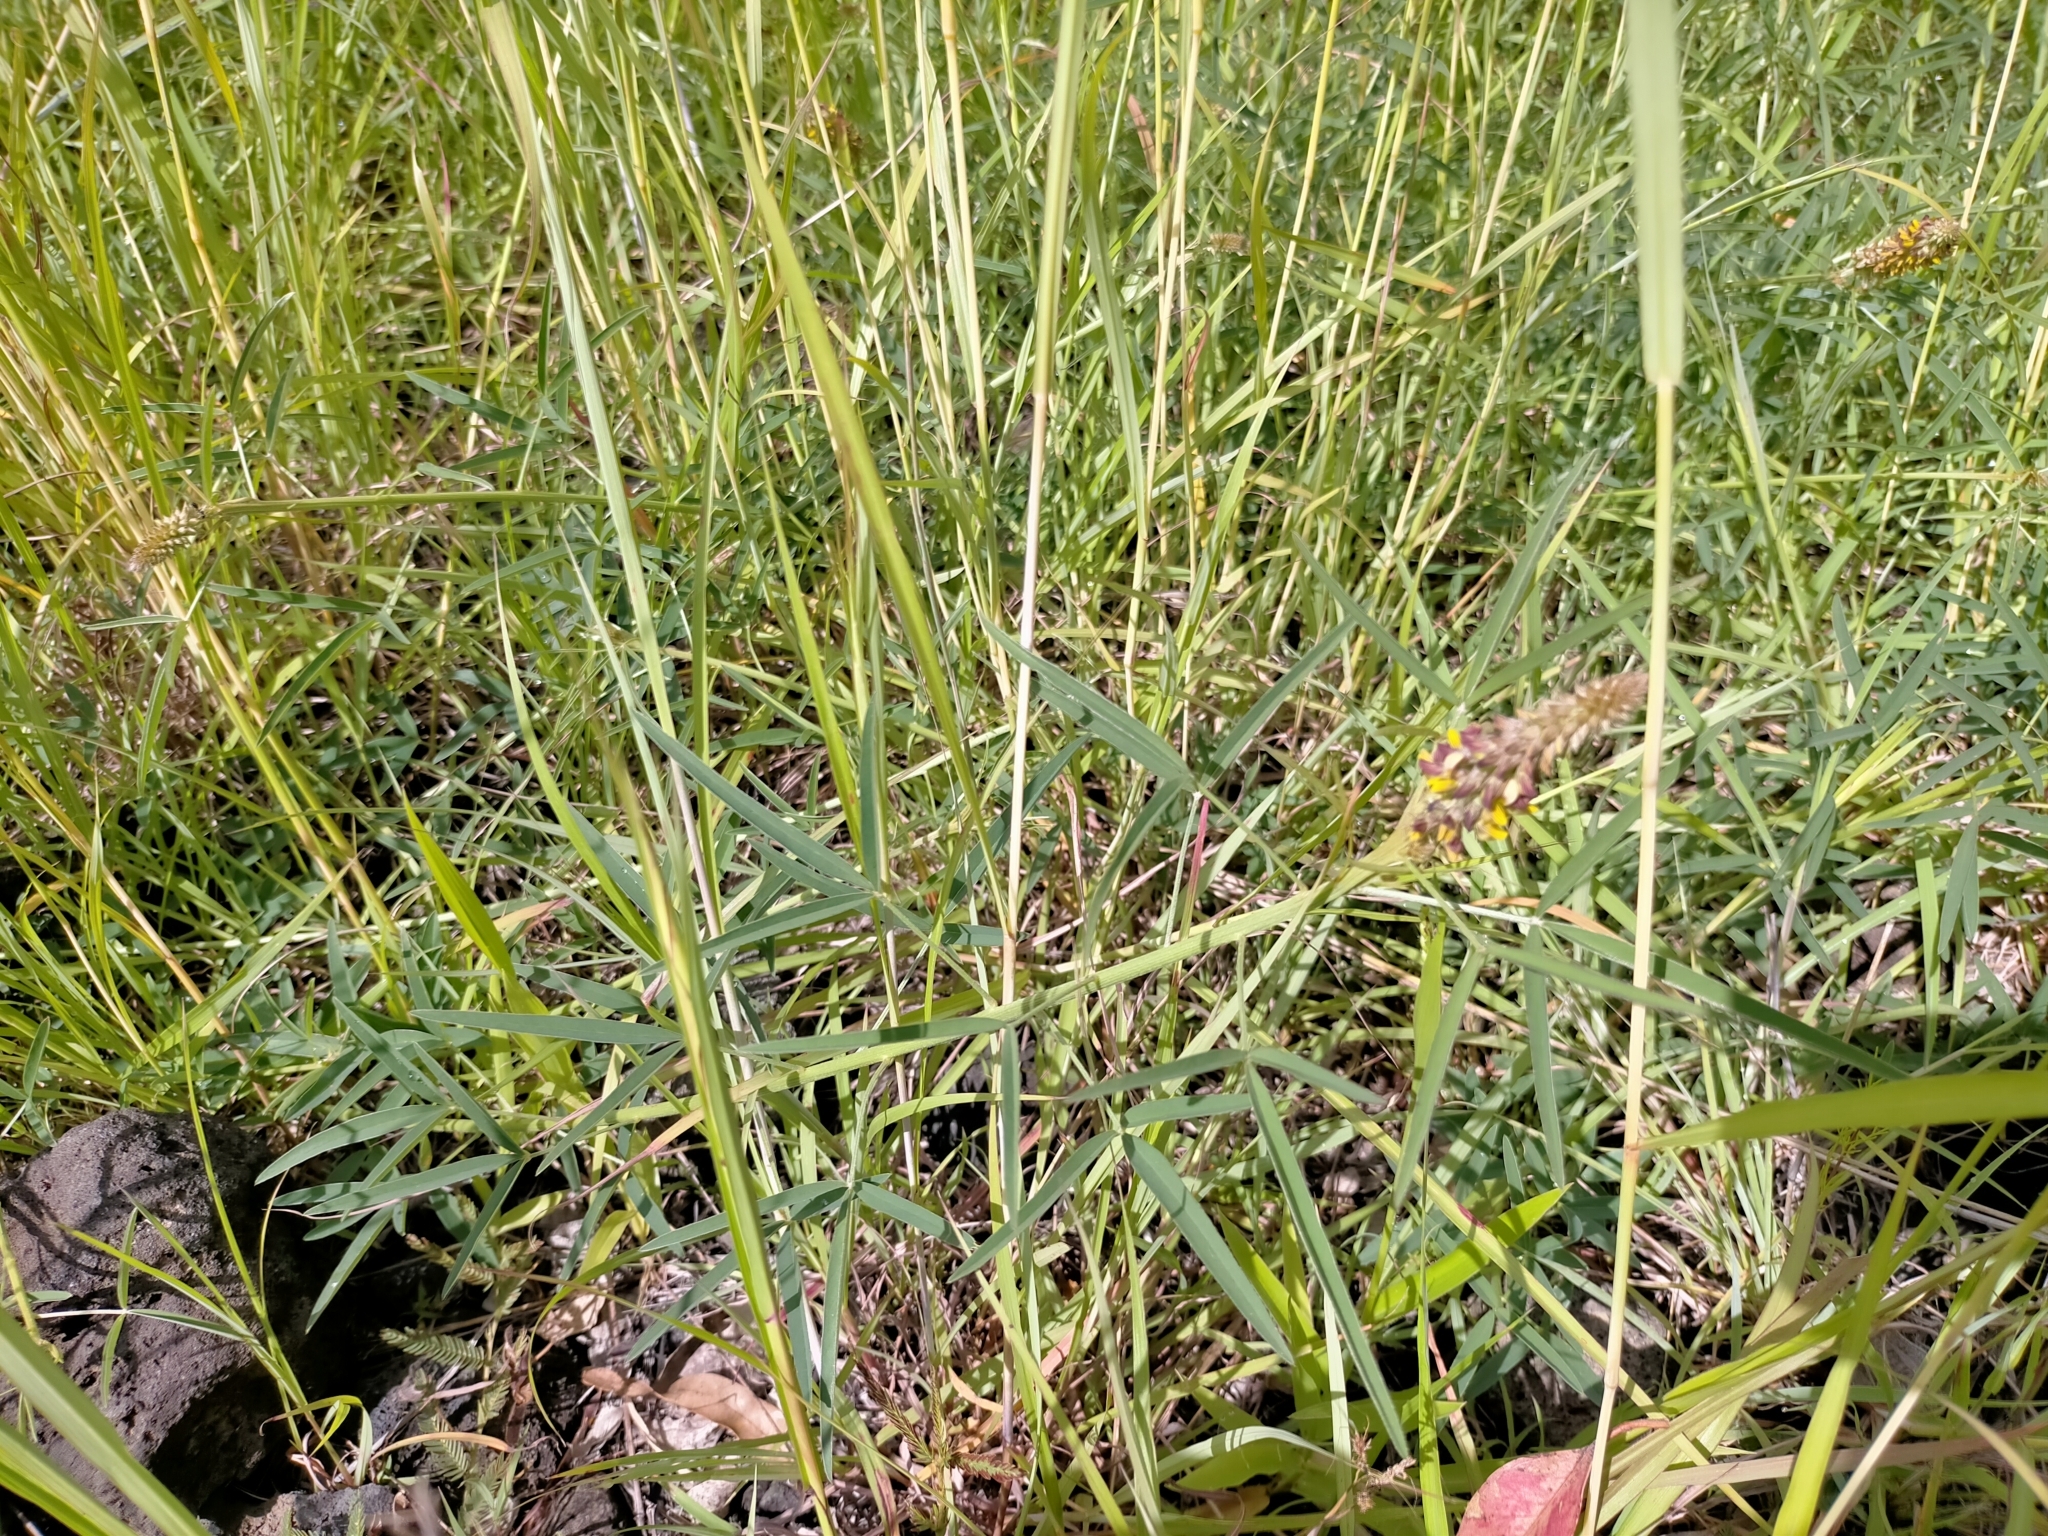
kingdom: Plantae
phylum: Tracheophyta
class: Magnoliopsida
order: Fabales
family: Fabaceae
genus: Crotalaria
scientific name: Crotalaria sphaerocarpa
